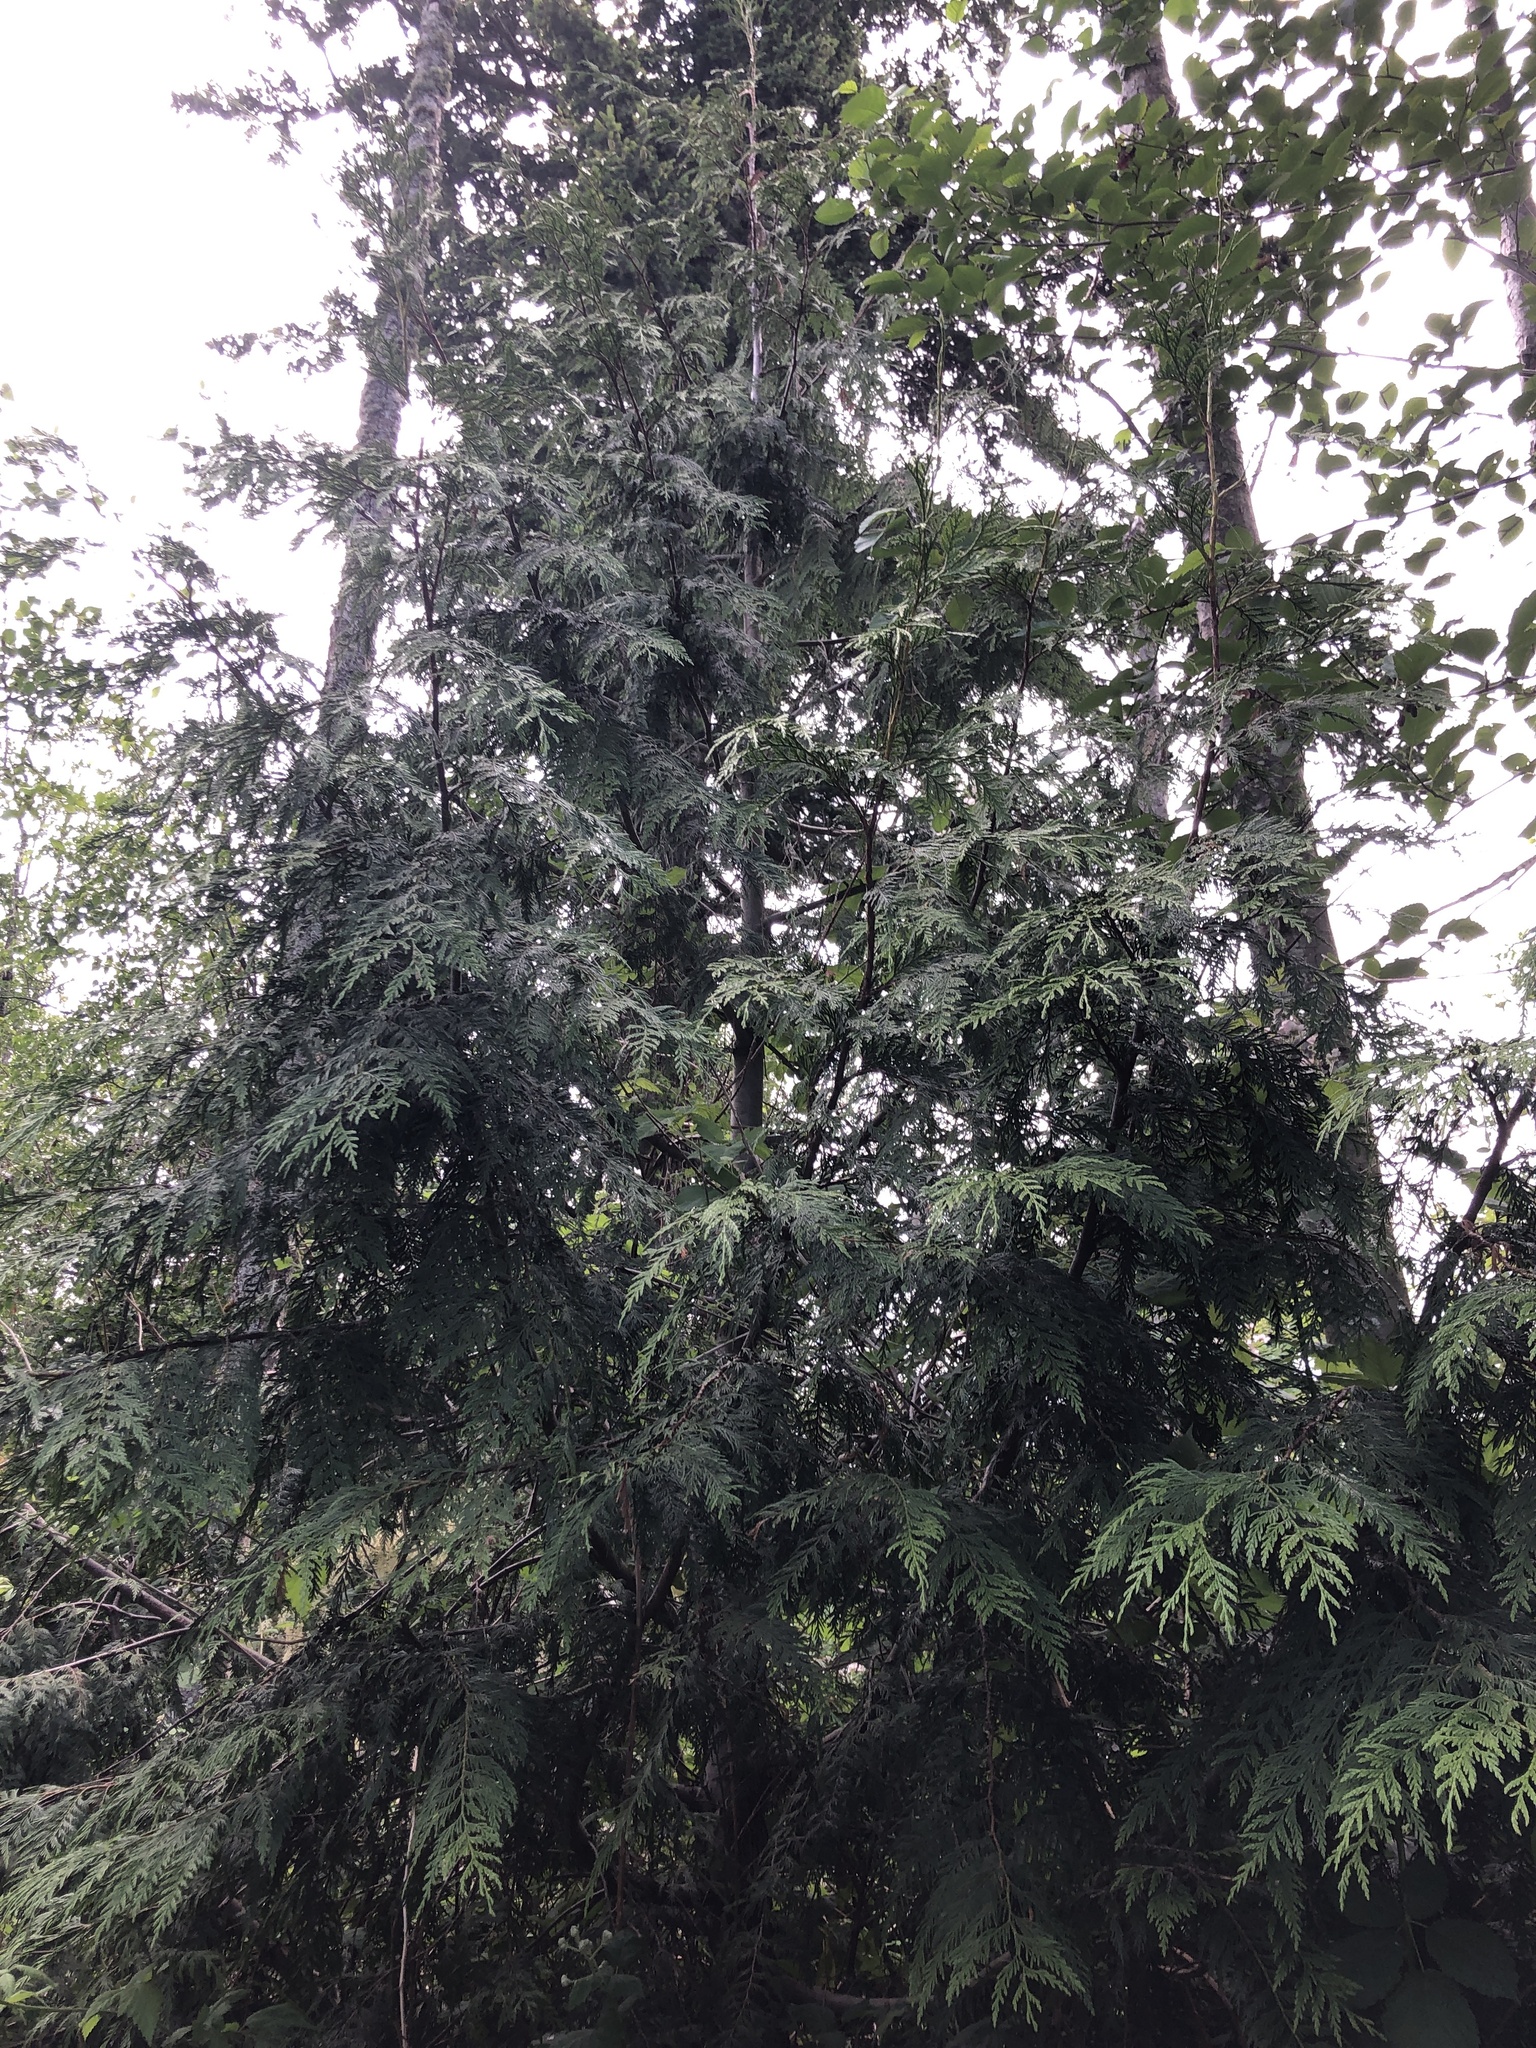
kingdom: Plantae
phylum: Tracheophyta
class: Pinopsida
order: Pinales
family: Cupressaceae
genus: Thuja
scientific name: Thuja plicata
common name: Western red-cedar
